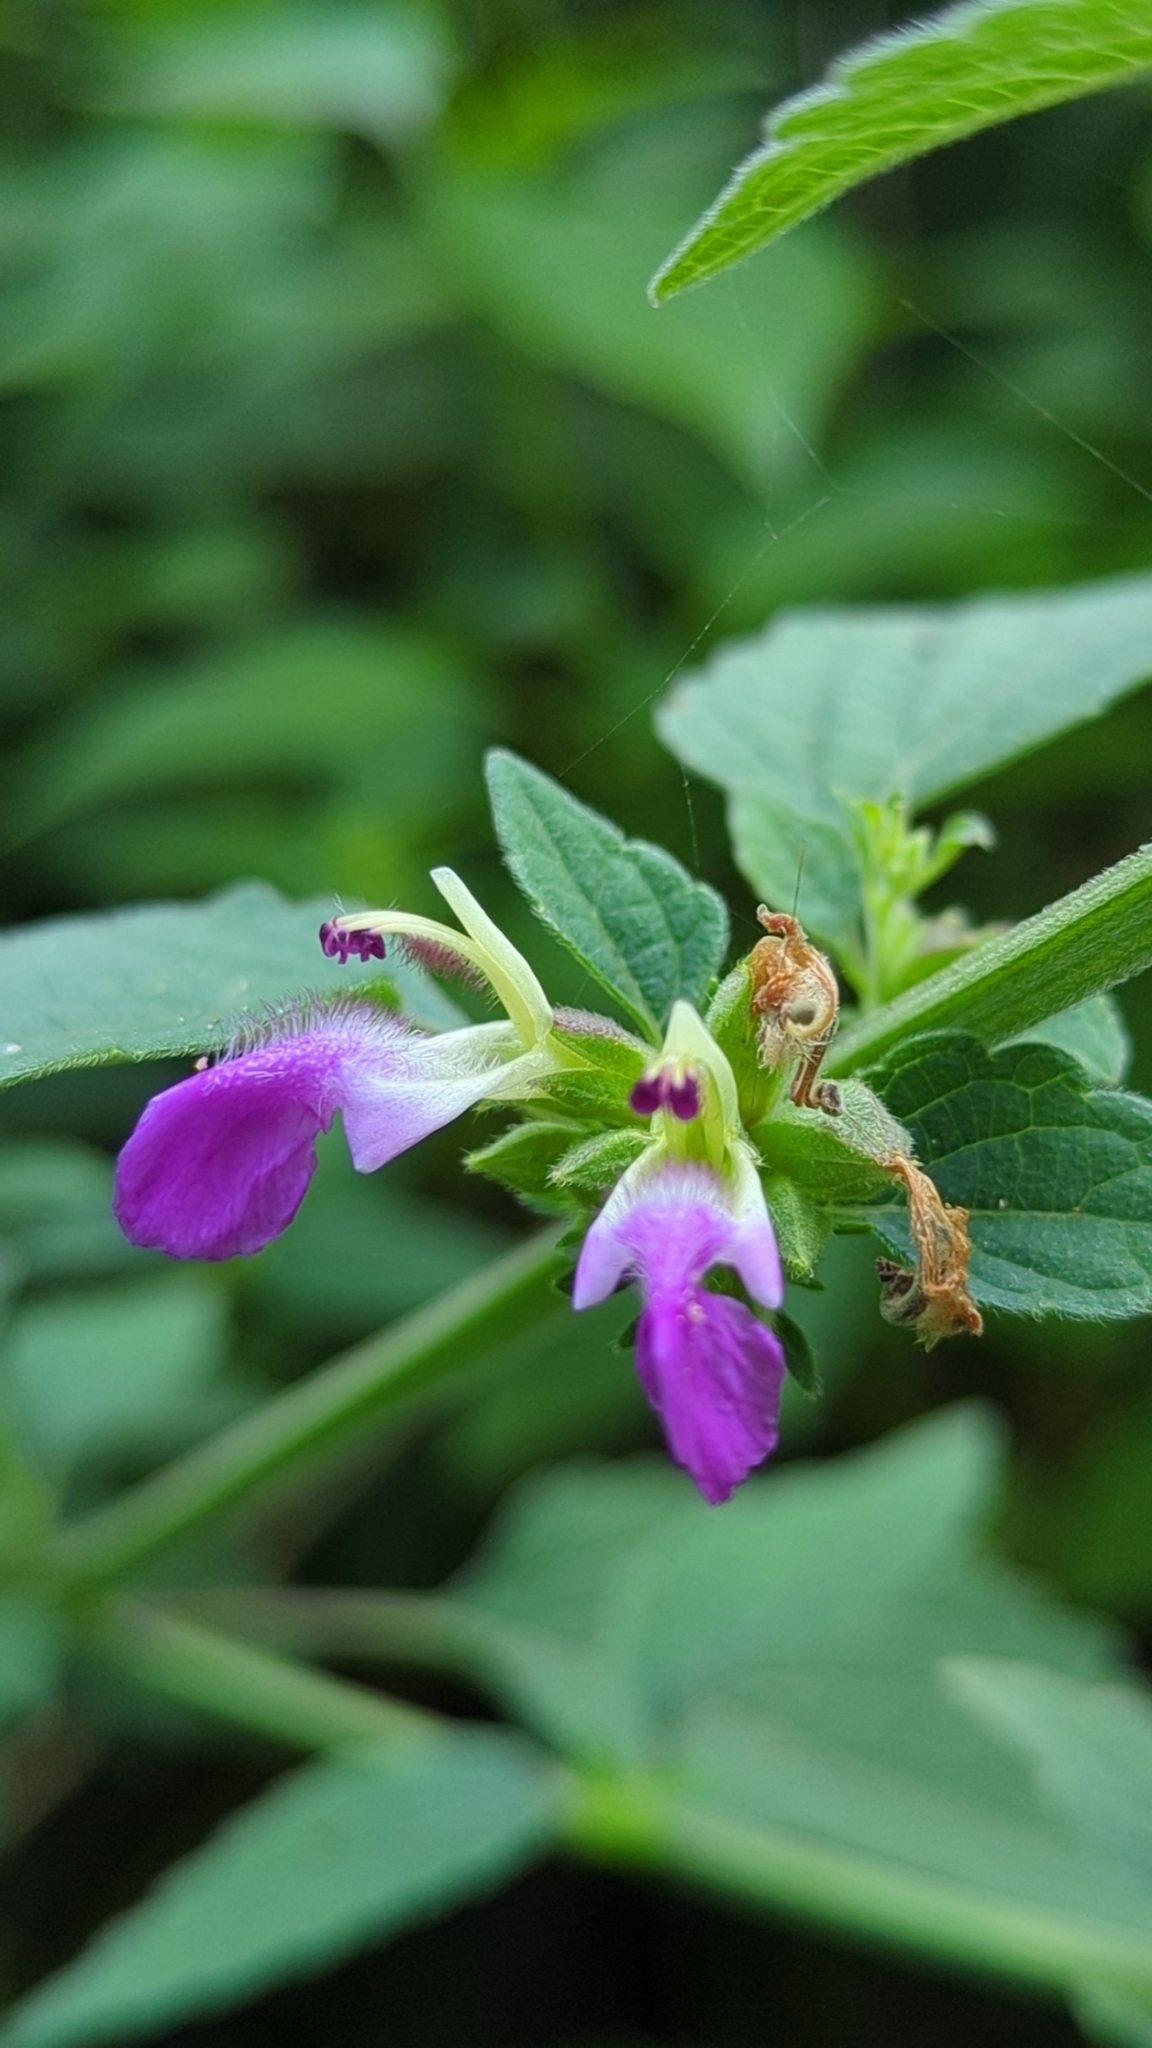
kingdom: Plantae
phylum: Tracheophyta
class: Magnoliopsida
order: Lamiales
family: Lamiaceae
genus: Anisomeles
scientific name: Anisomeles indica
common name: Catmint
